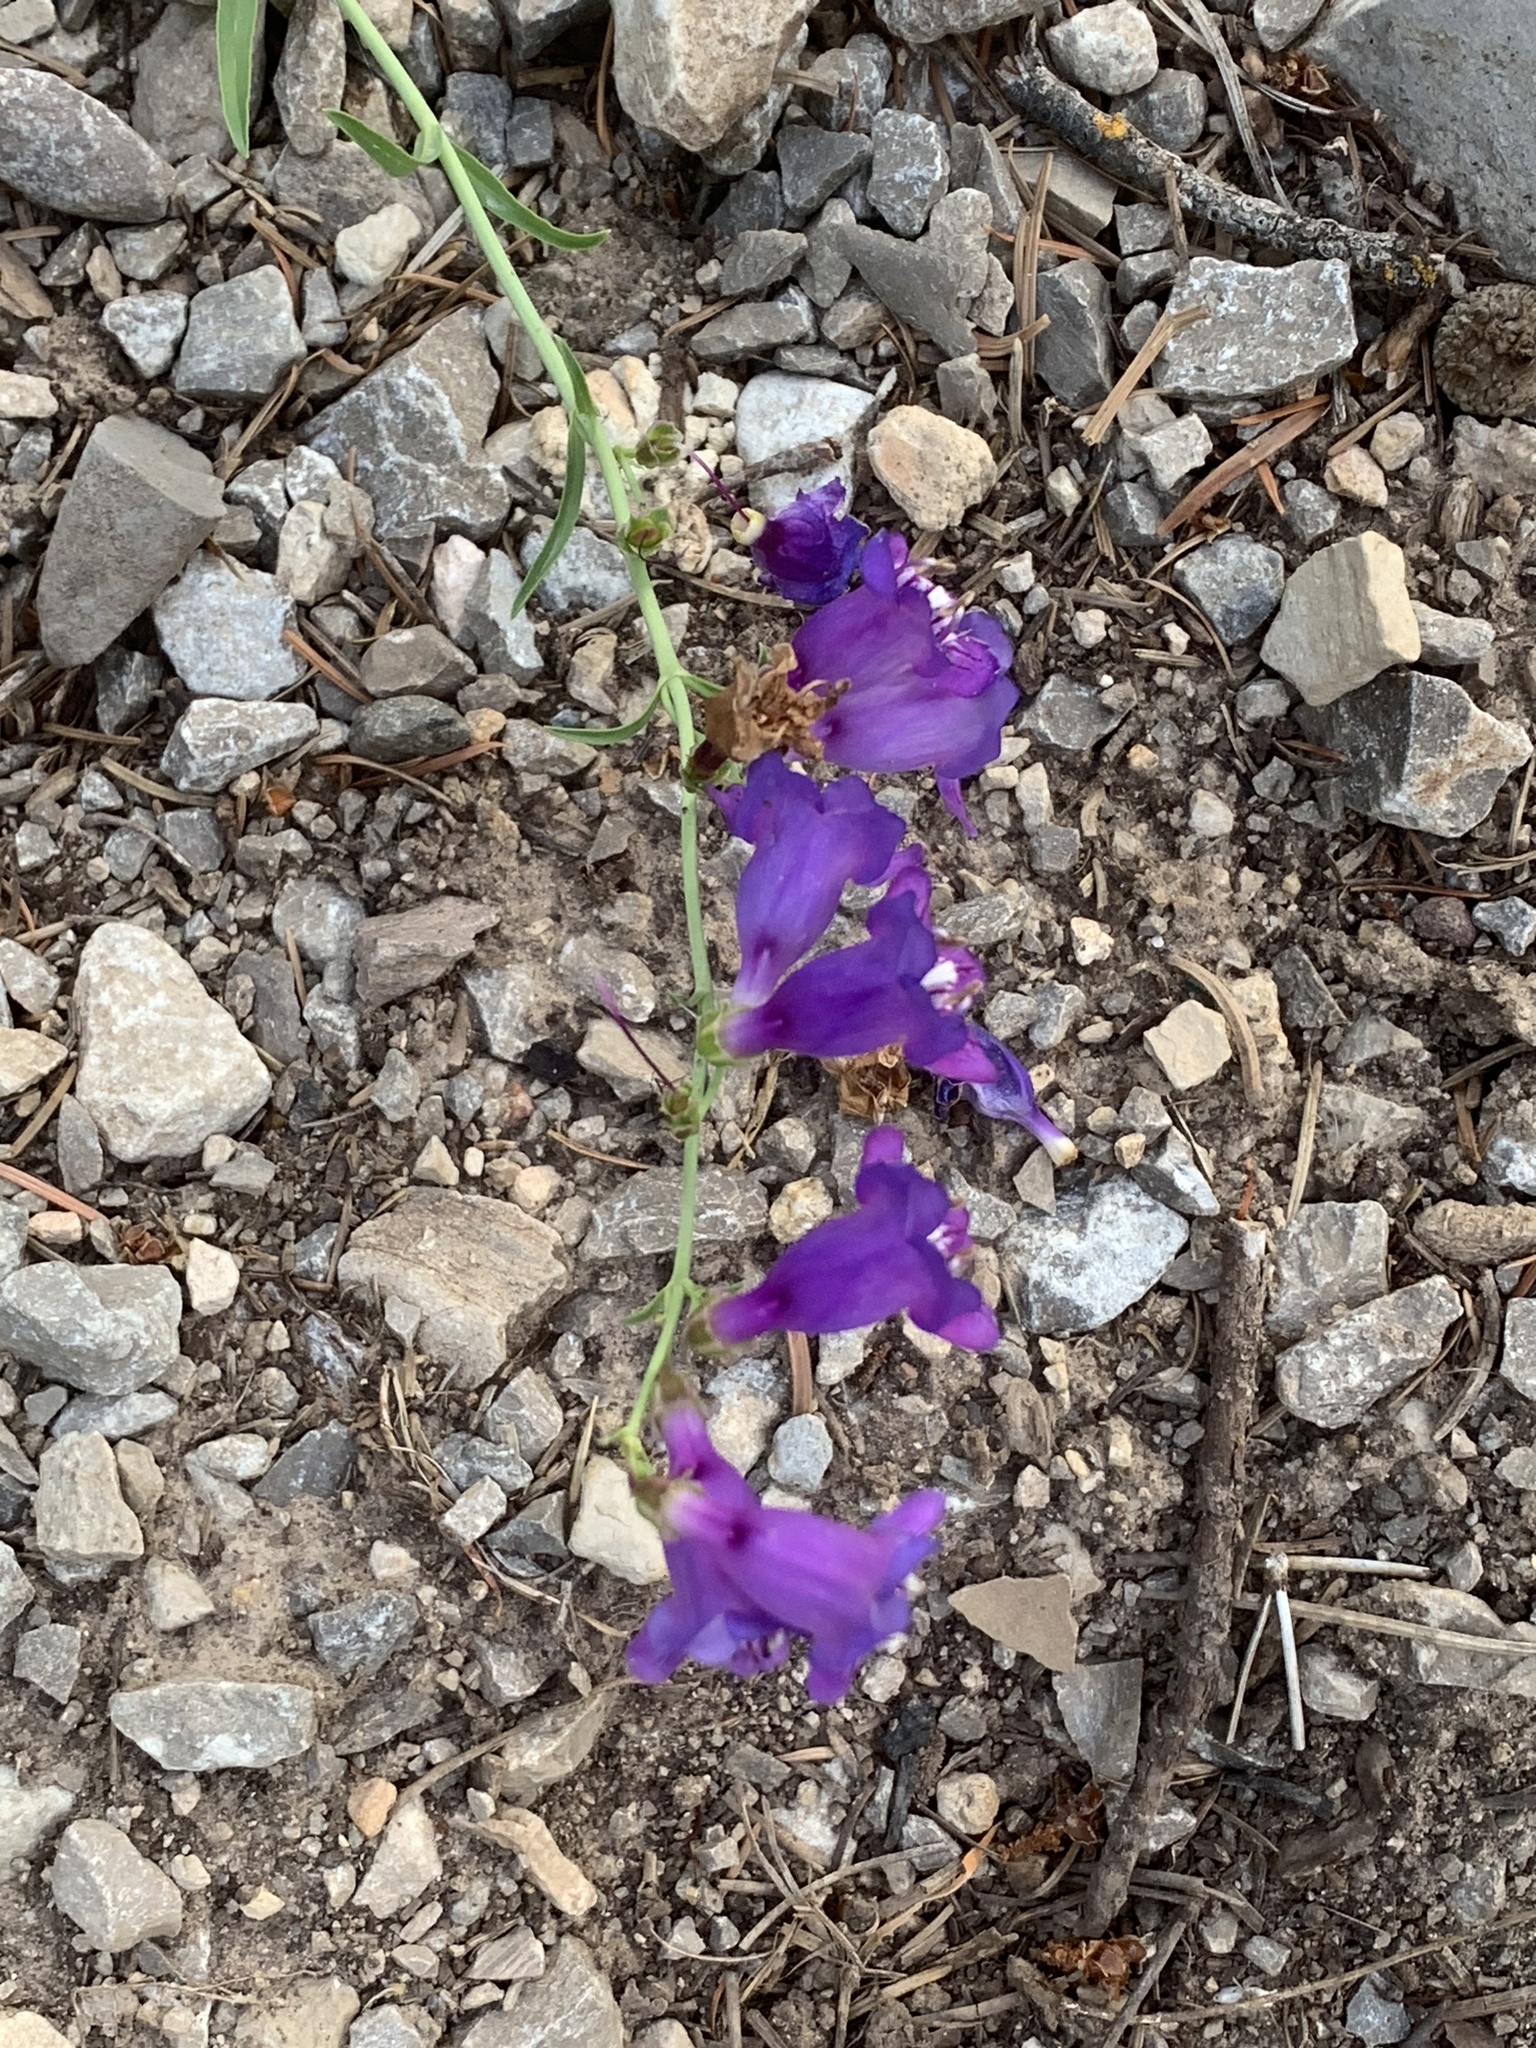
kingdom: Plantae
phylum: Tracheophyta
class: Magnoliopsida
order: Lamiales
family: Plantaginaceae
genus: Penstemon
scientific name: Penstemon neomexicanus
